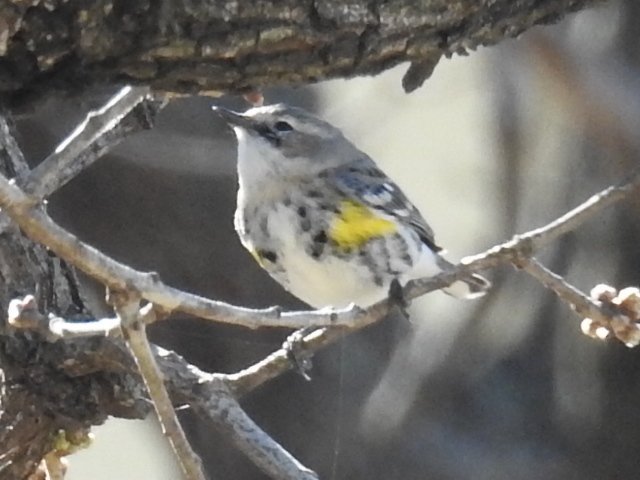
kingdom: Animalia
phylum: Chordata
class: Aves
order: Passeriformes
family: Parulidae
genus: Setophaga
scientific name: Setophaga coronata
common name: Myrtle warbler
